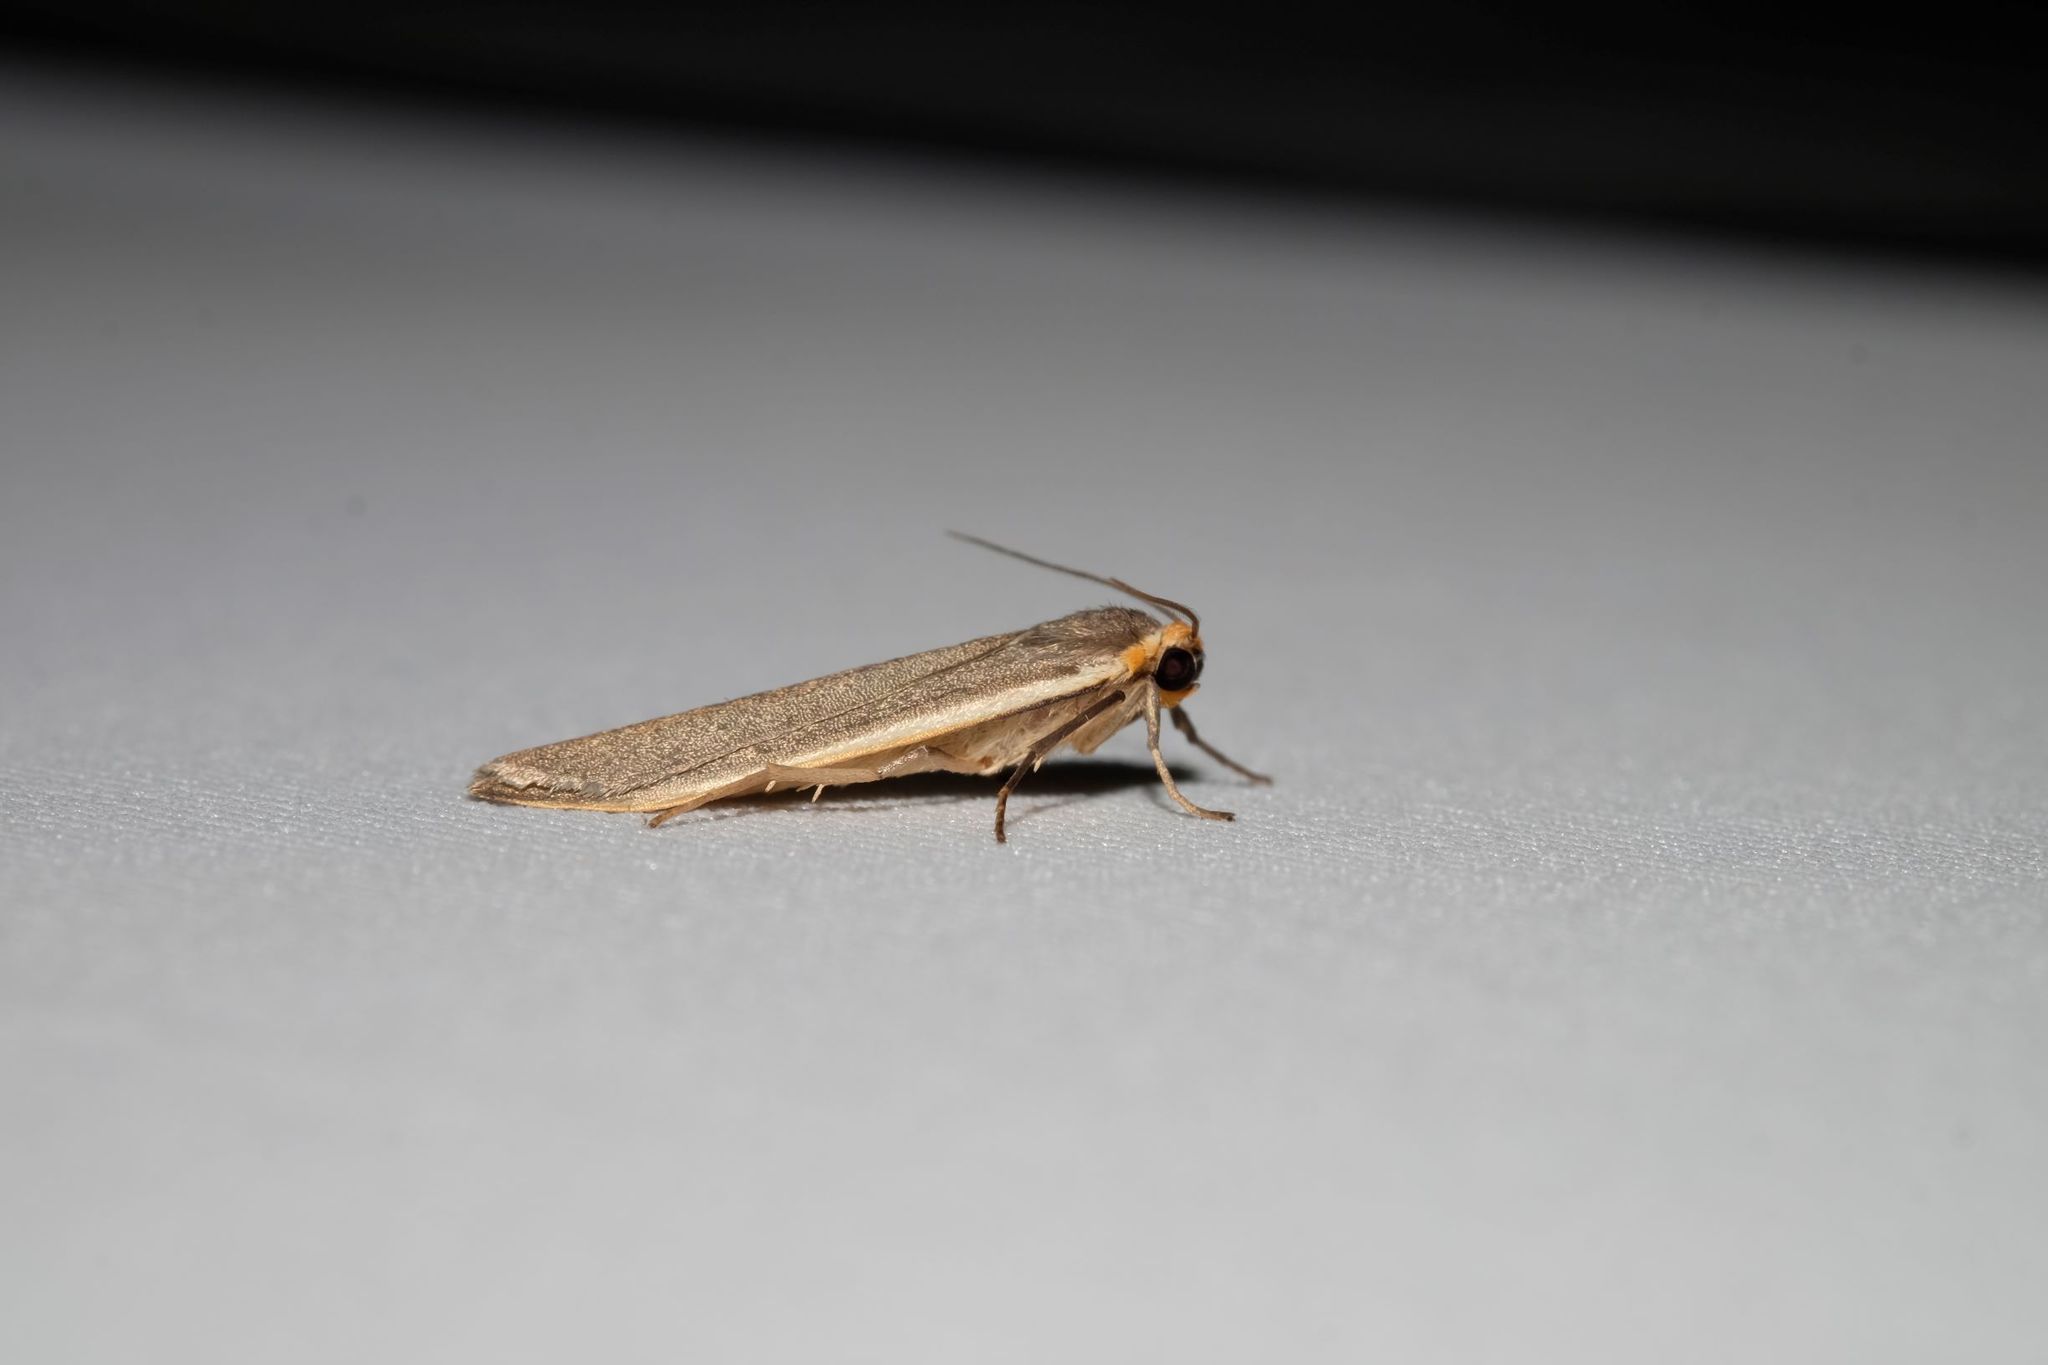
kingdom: Animalia
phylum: Arthropoda
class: Insecta
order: Lepidoptera
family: Erebidae
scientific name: Erebidae
